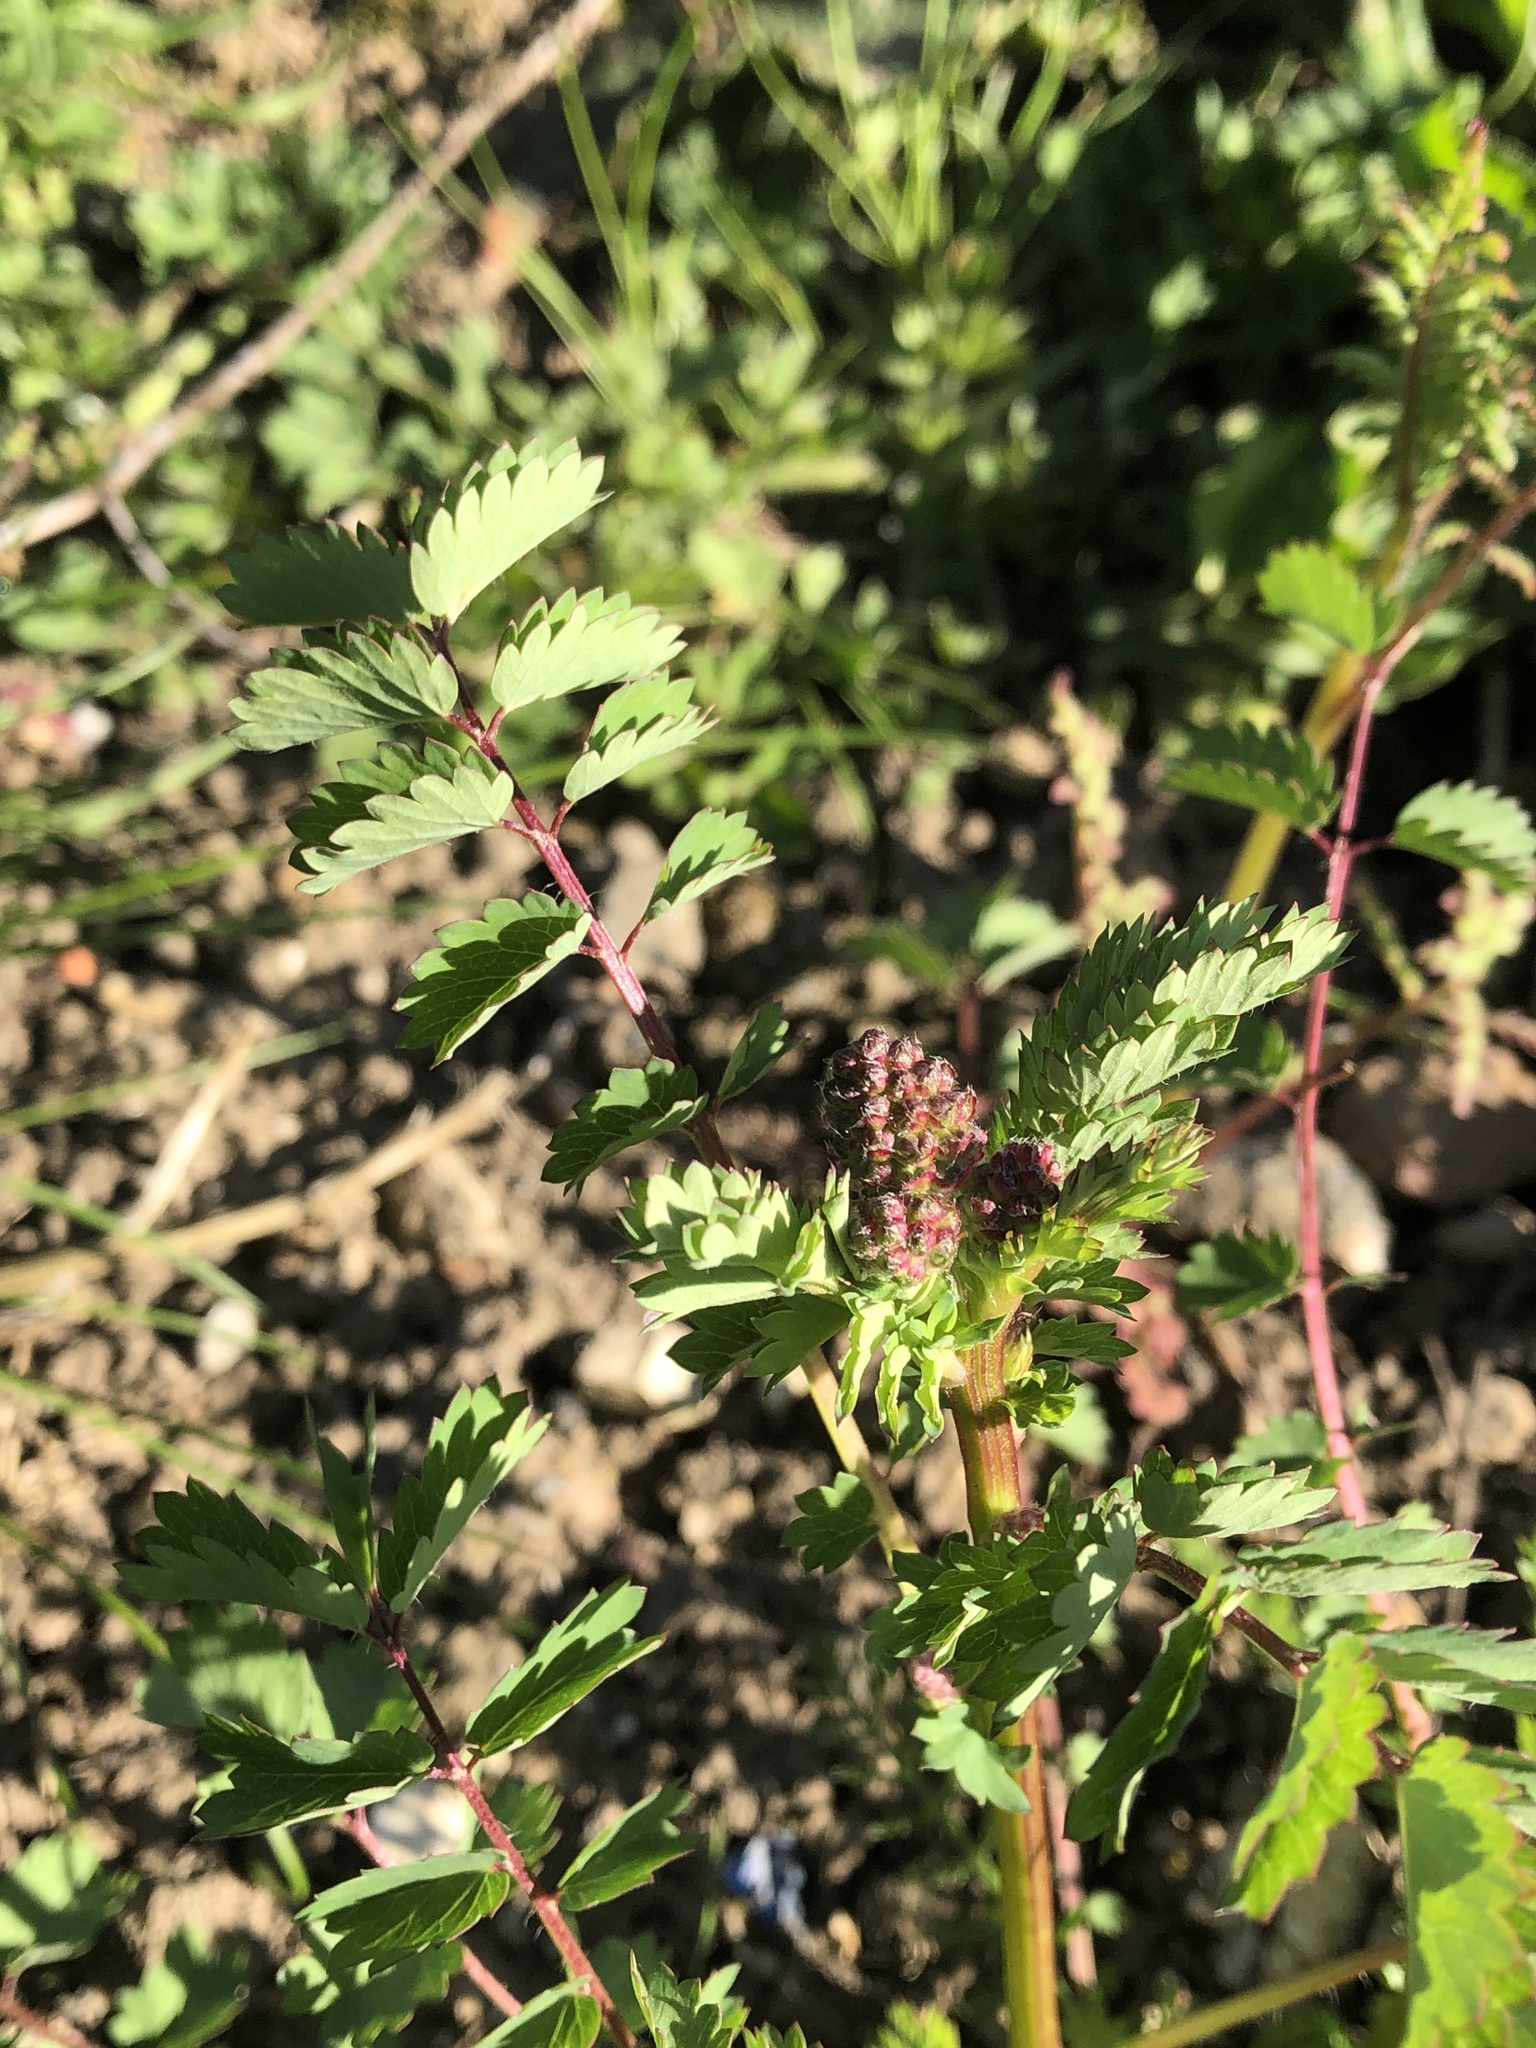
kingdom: Plantae
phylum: Tracheophyta
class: Magnoliopsida
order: Rosales
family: Rosaceae
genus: Poterium
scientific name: Poterium sanguisorba
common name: Salad burnet
